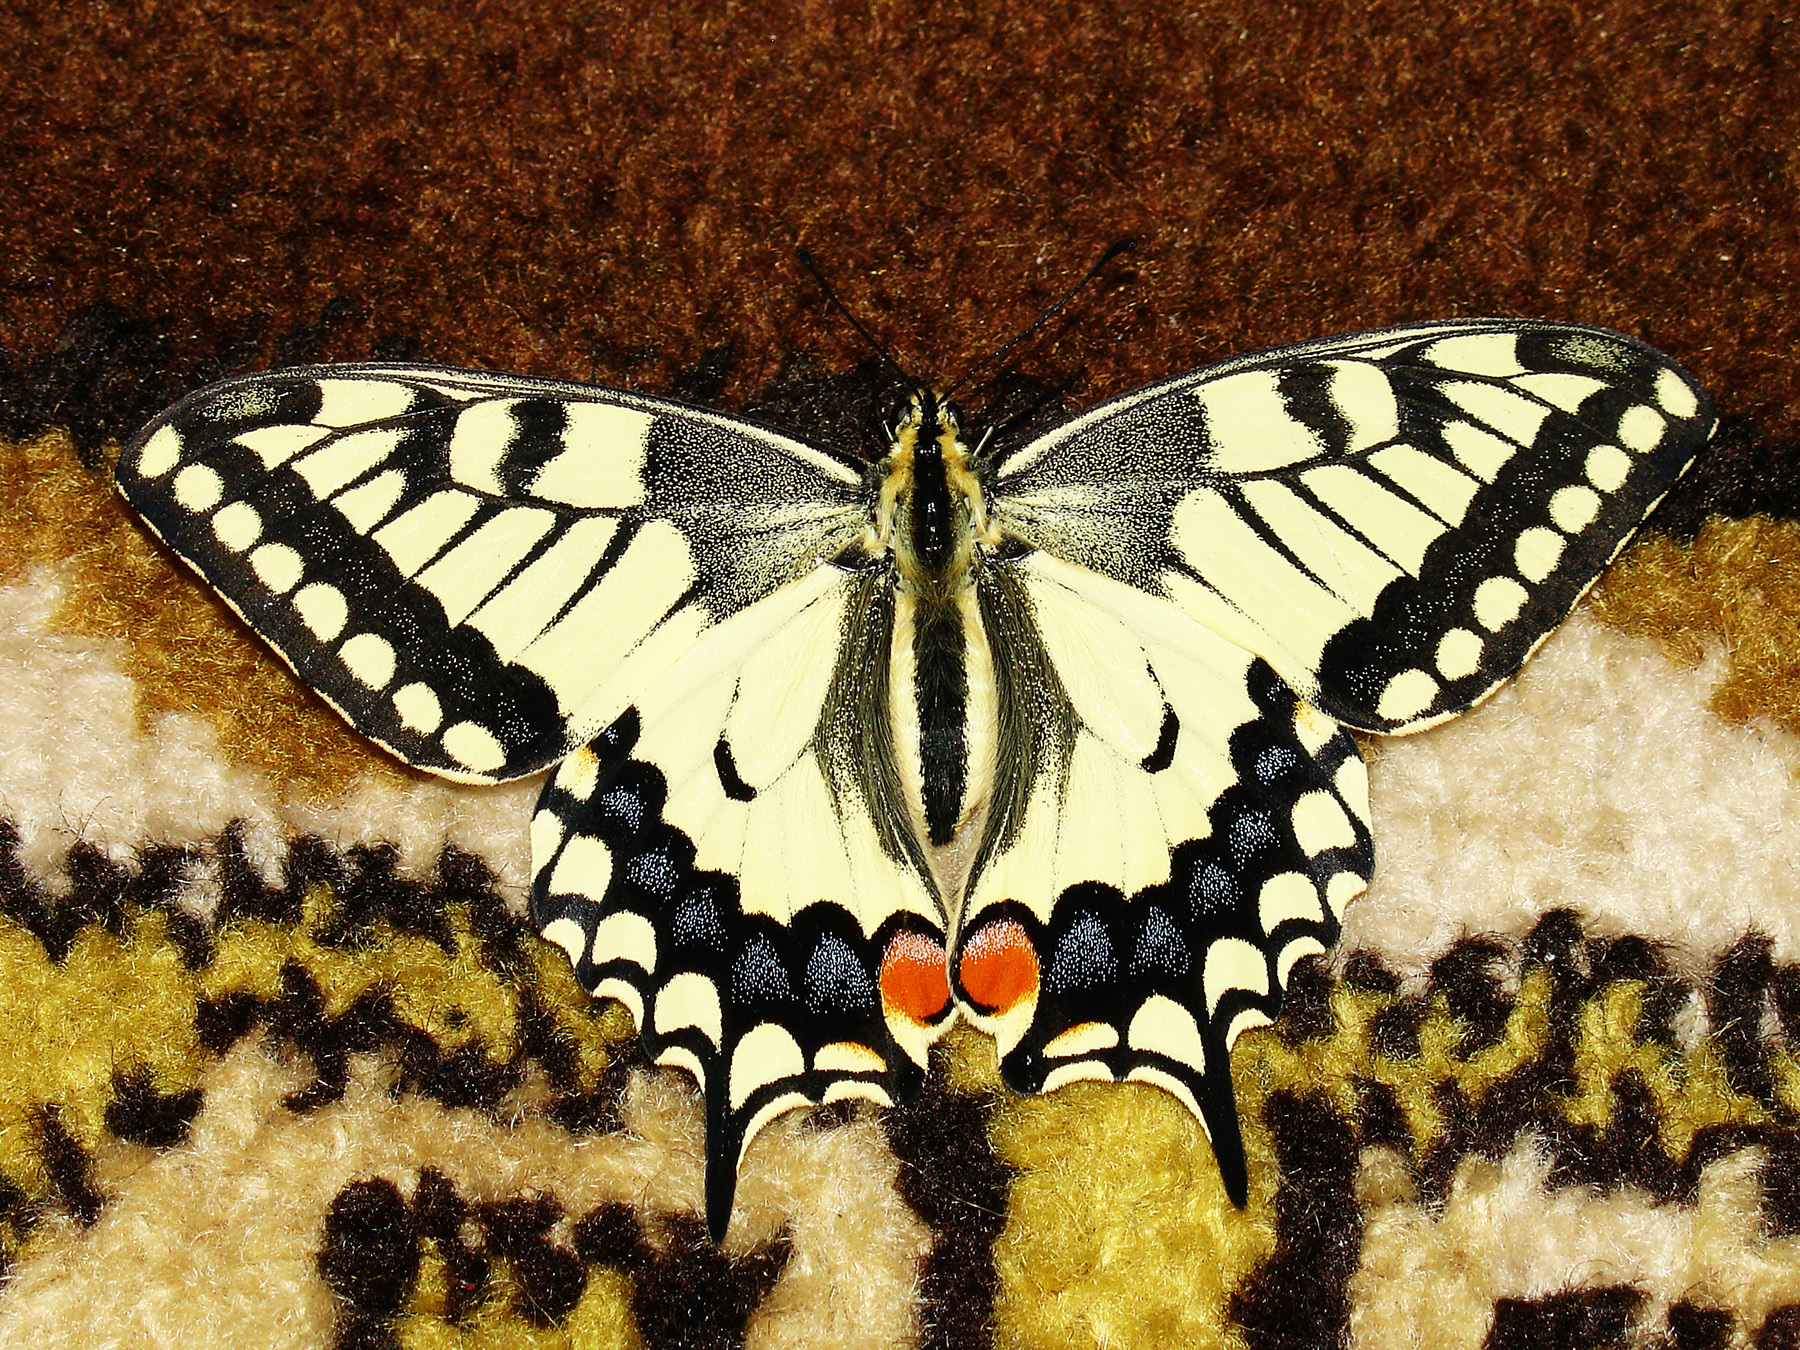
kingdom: Animalia
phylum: Arthropoda
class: Insecta
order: Lepidoptera
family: Papilionidae
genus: Papilio
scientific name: Papilio machaon
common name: Swallowtail
